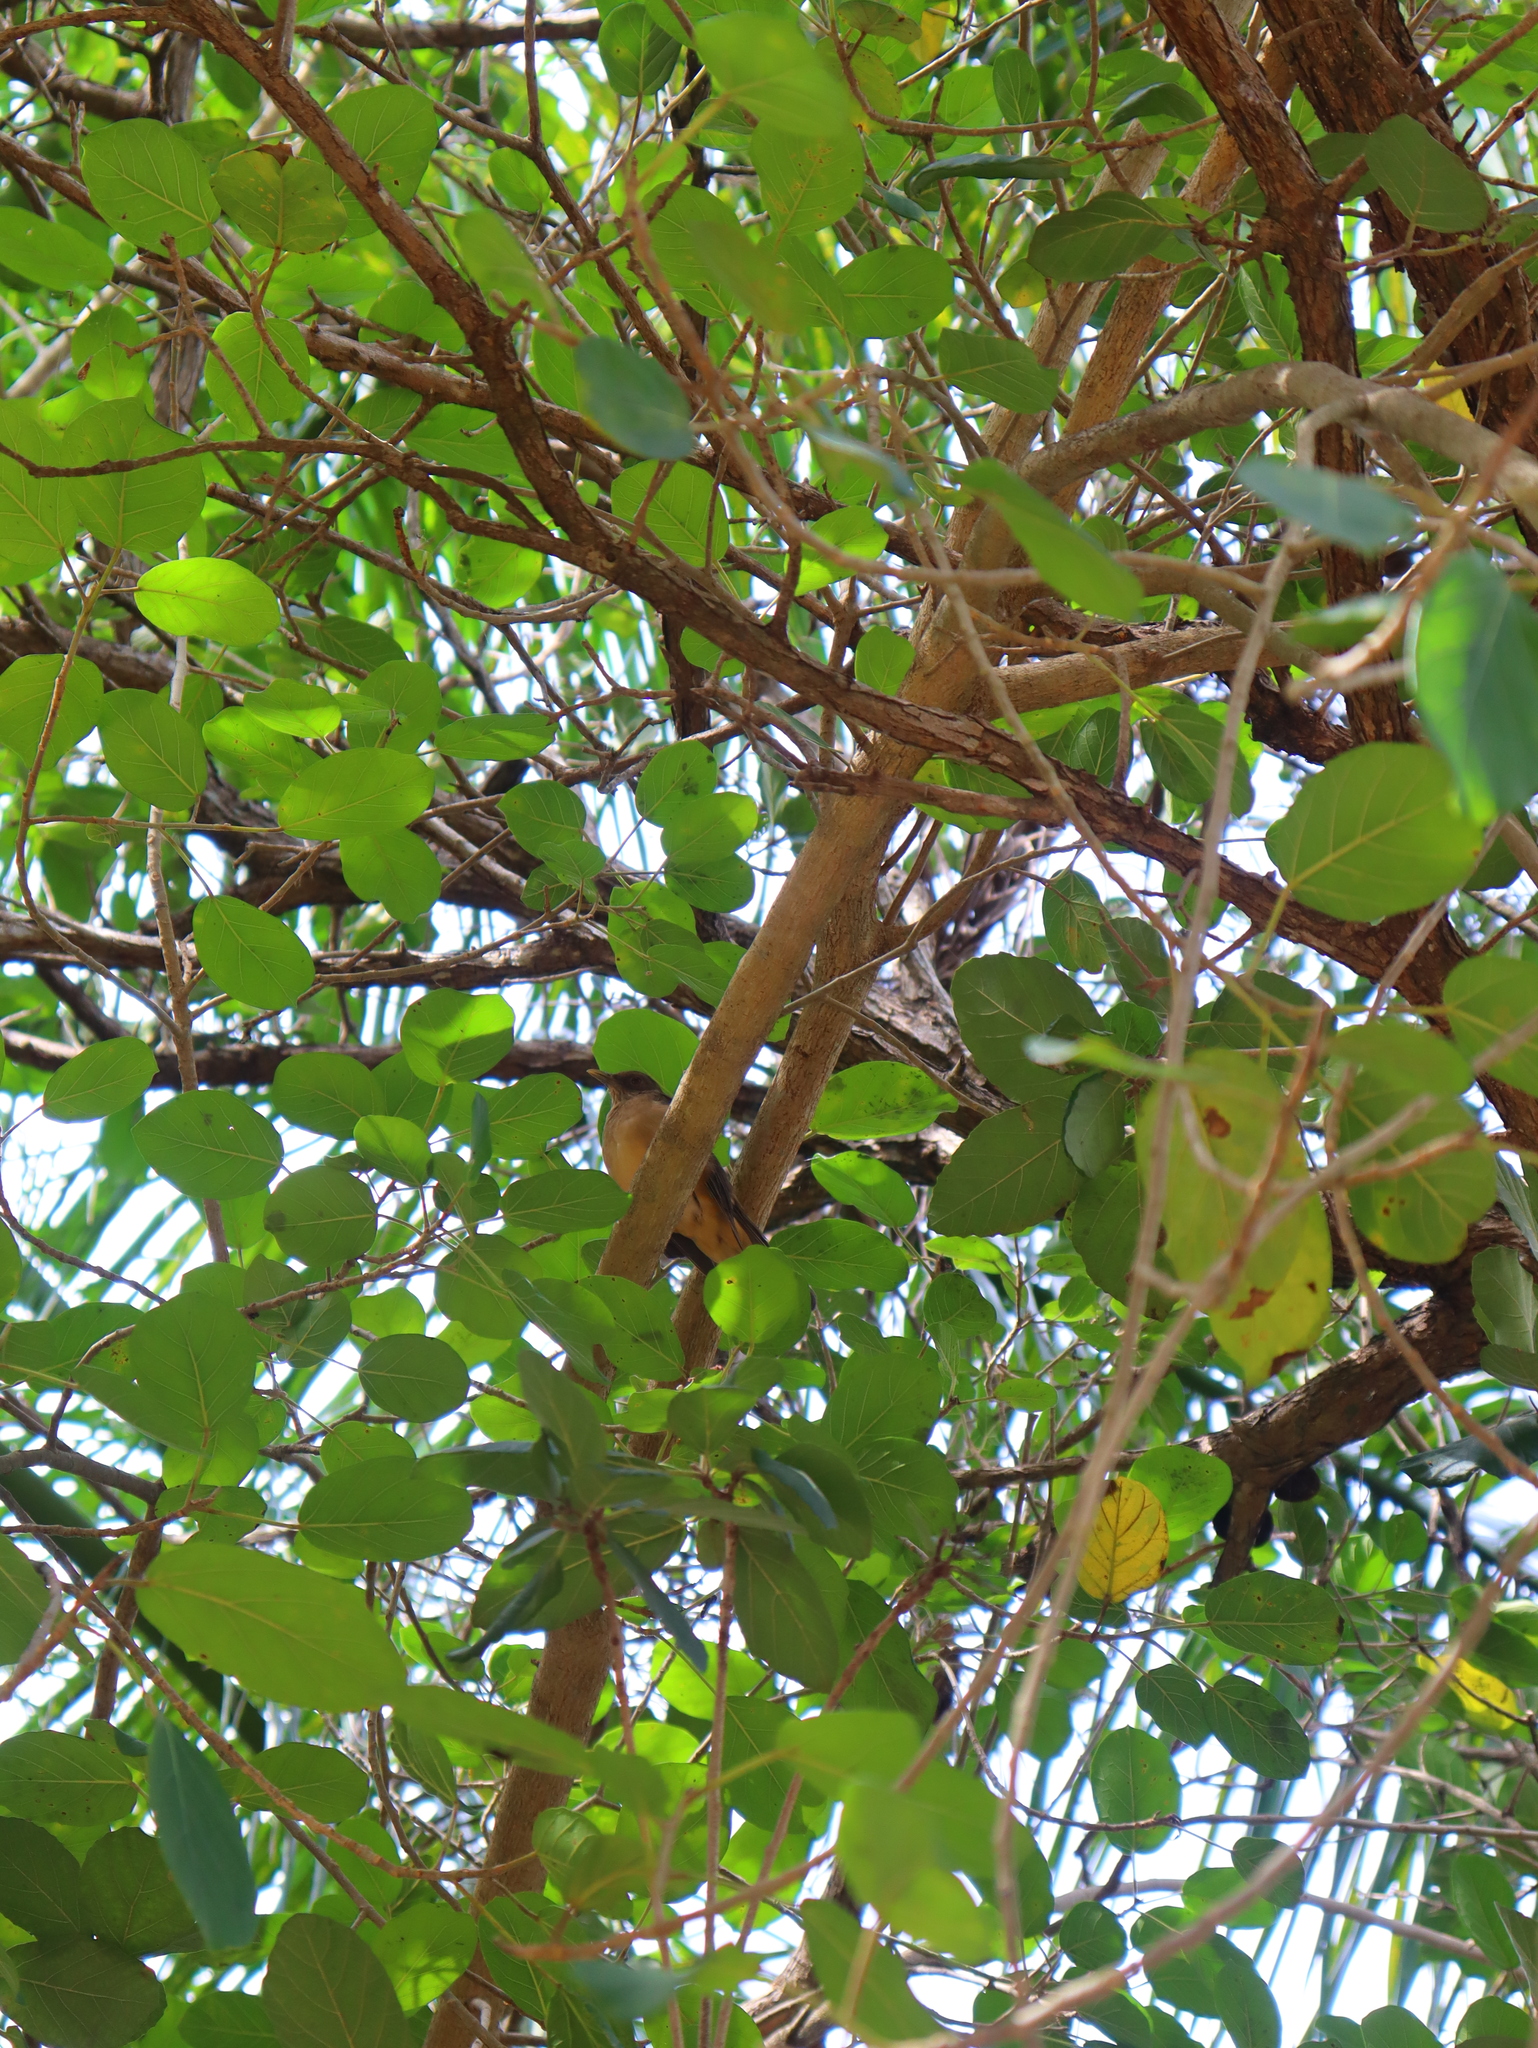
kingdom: Animalia
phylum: Chordata
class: Aves
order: Passeriformes
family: Turdidae
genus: Turdus
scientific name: Turdus grayi
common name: Clay-colored thrush
